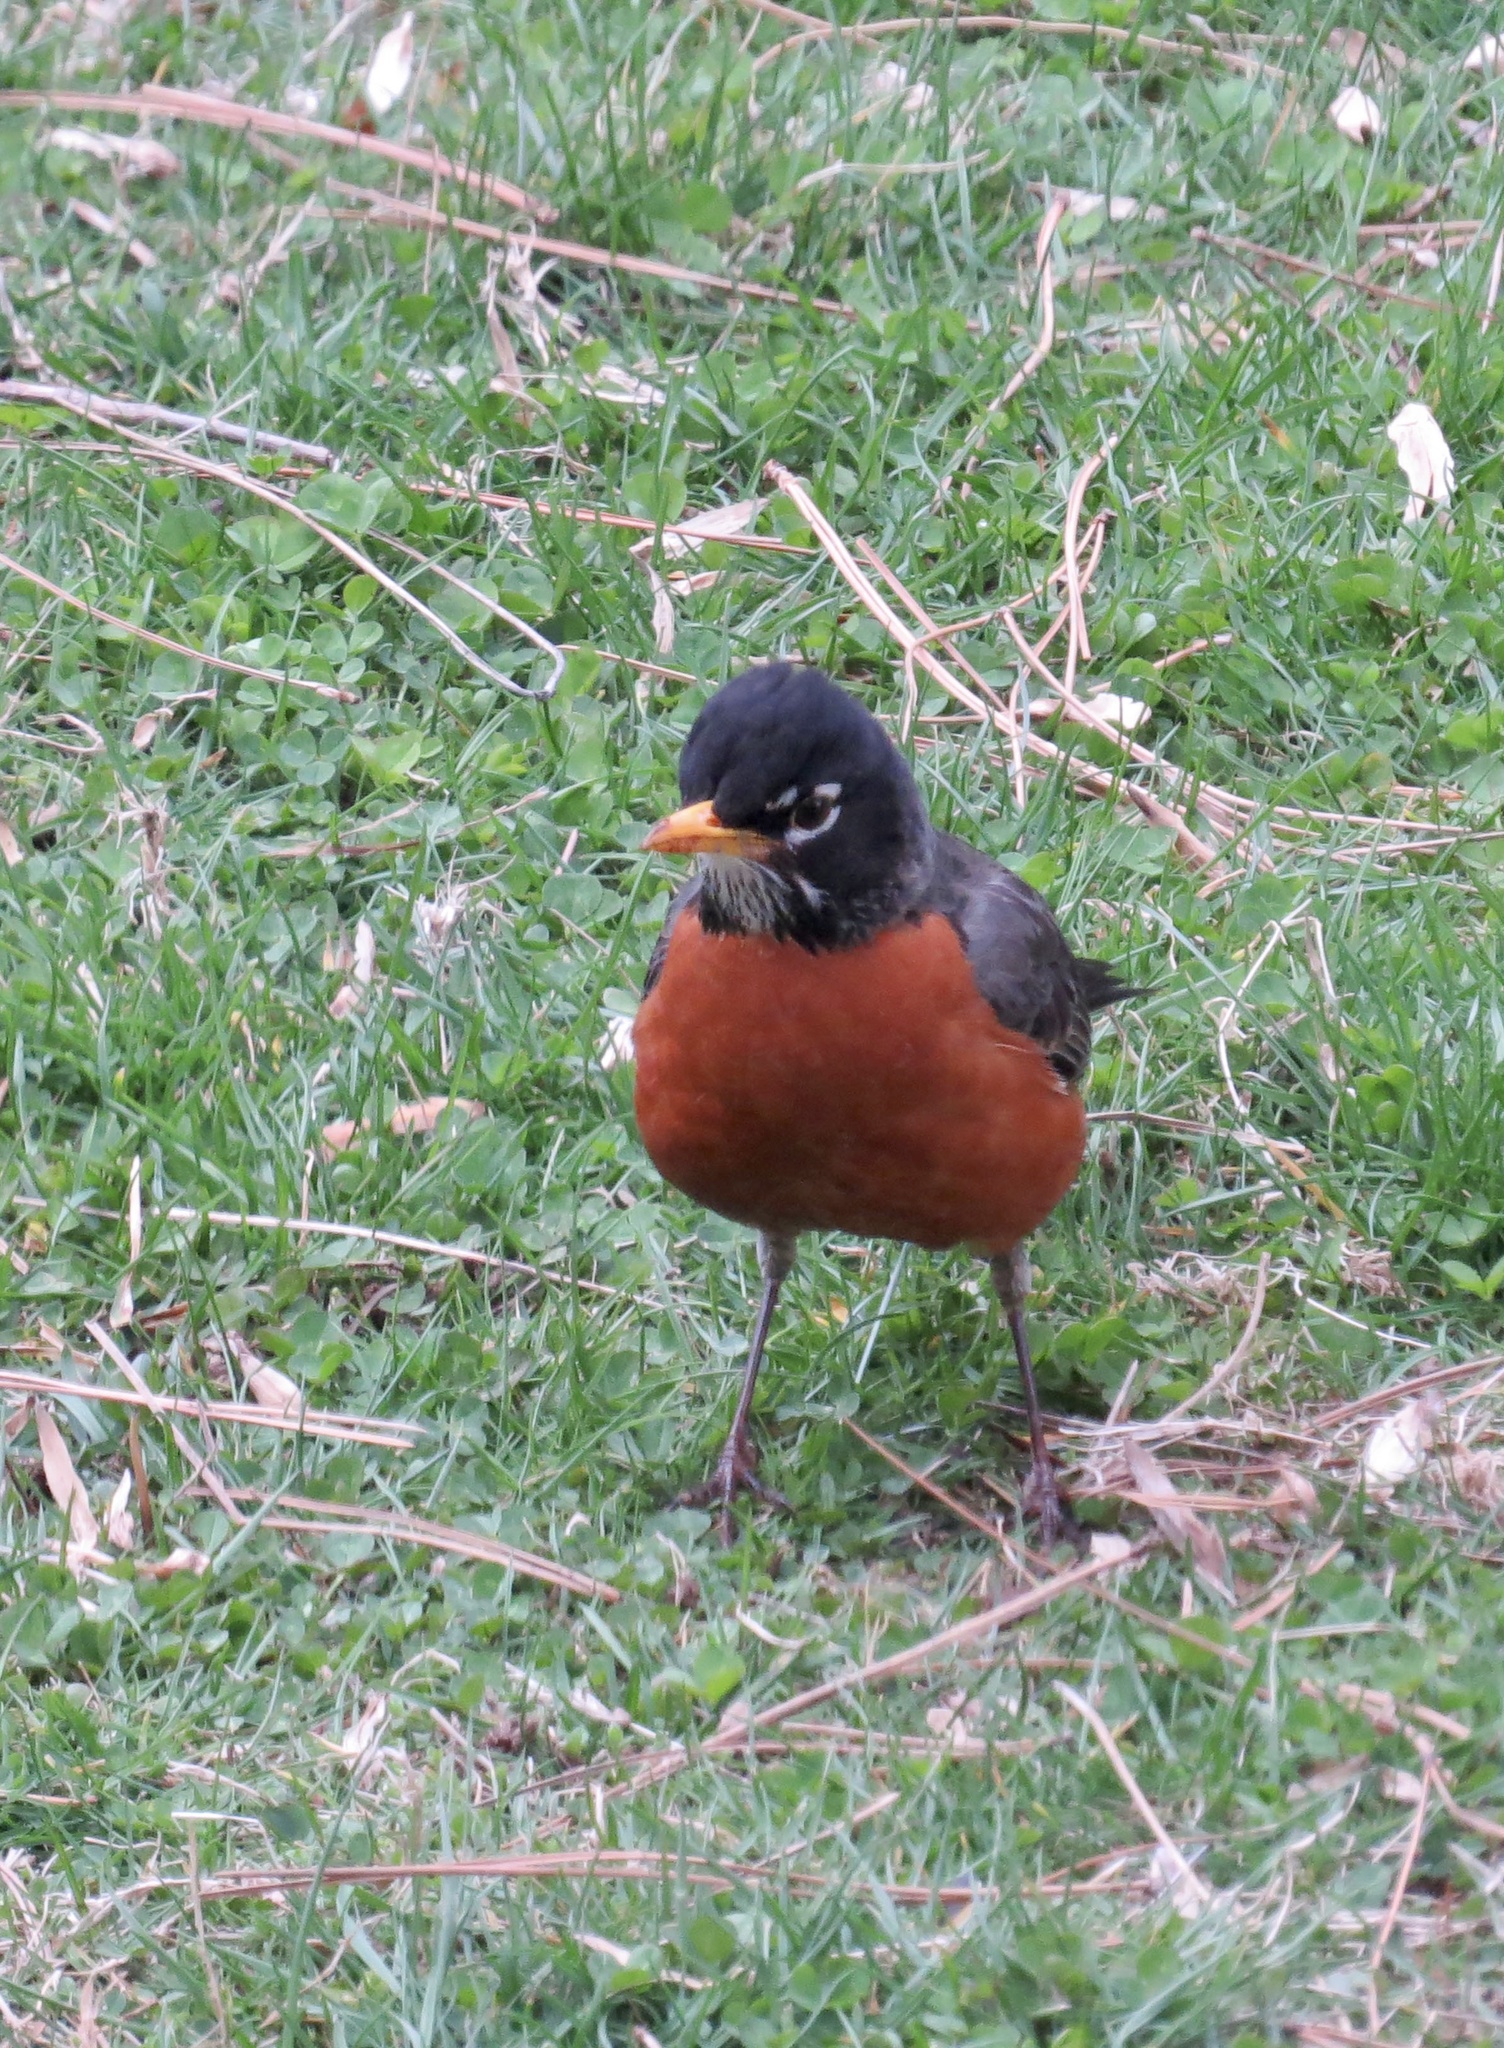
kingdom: Animalia
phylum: Chordata
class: Aves
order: Passeriformes
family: Turdidae
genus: Turdus
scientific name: Turdus migratorius
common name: American robin
